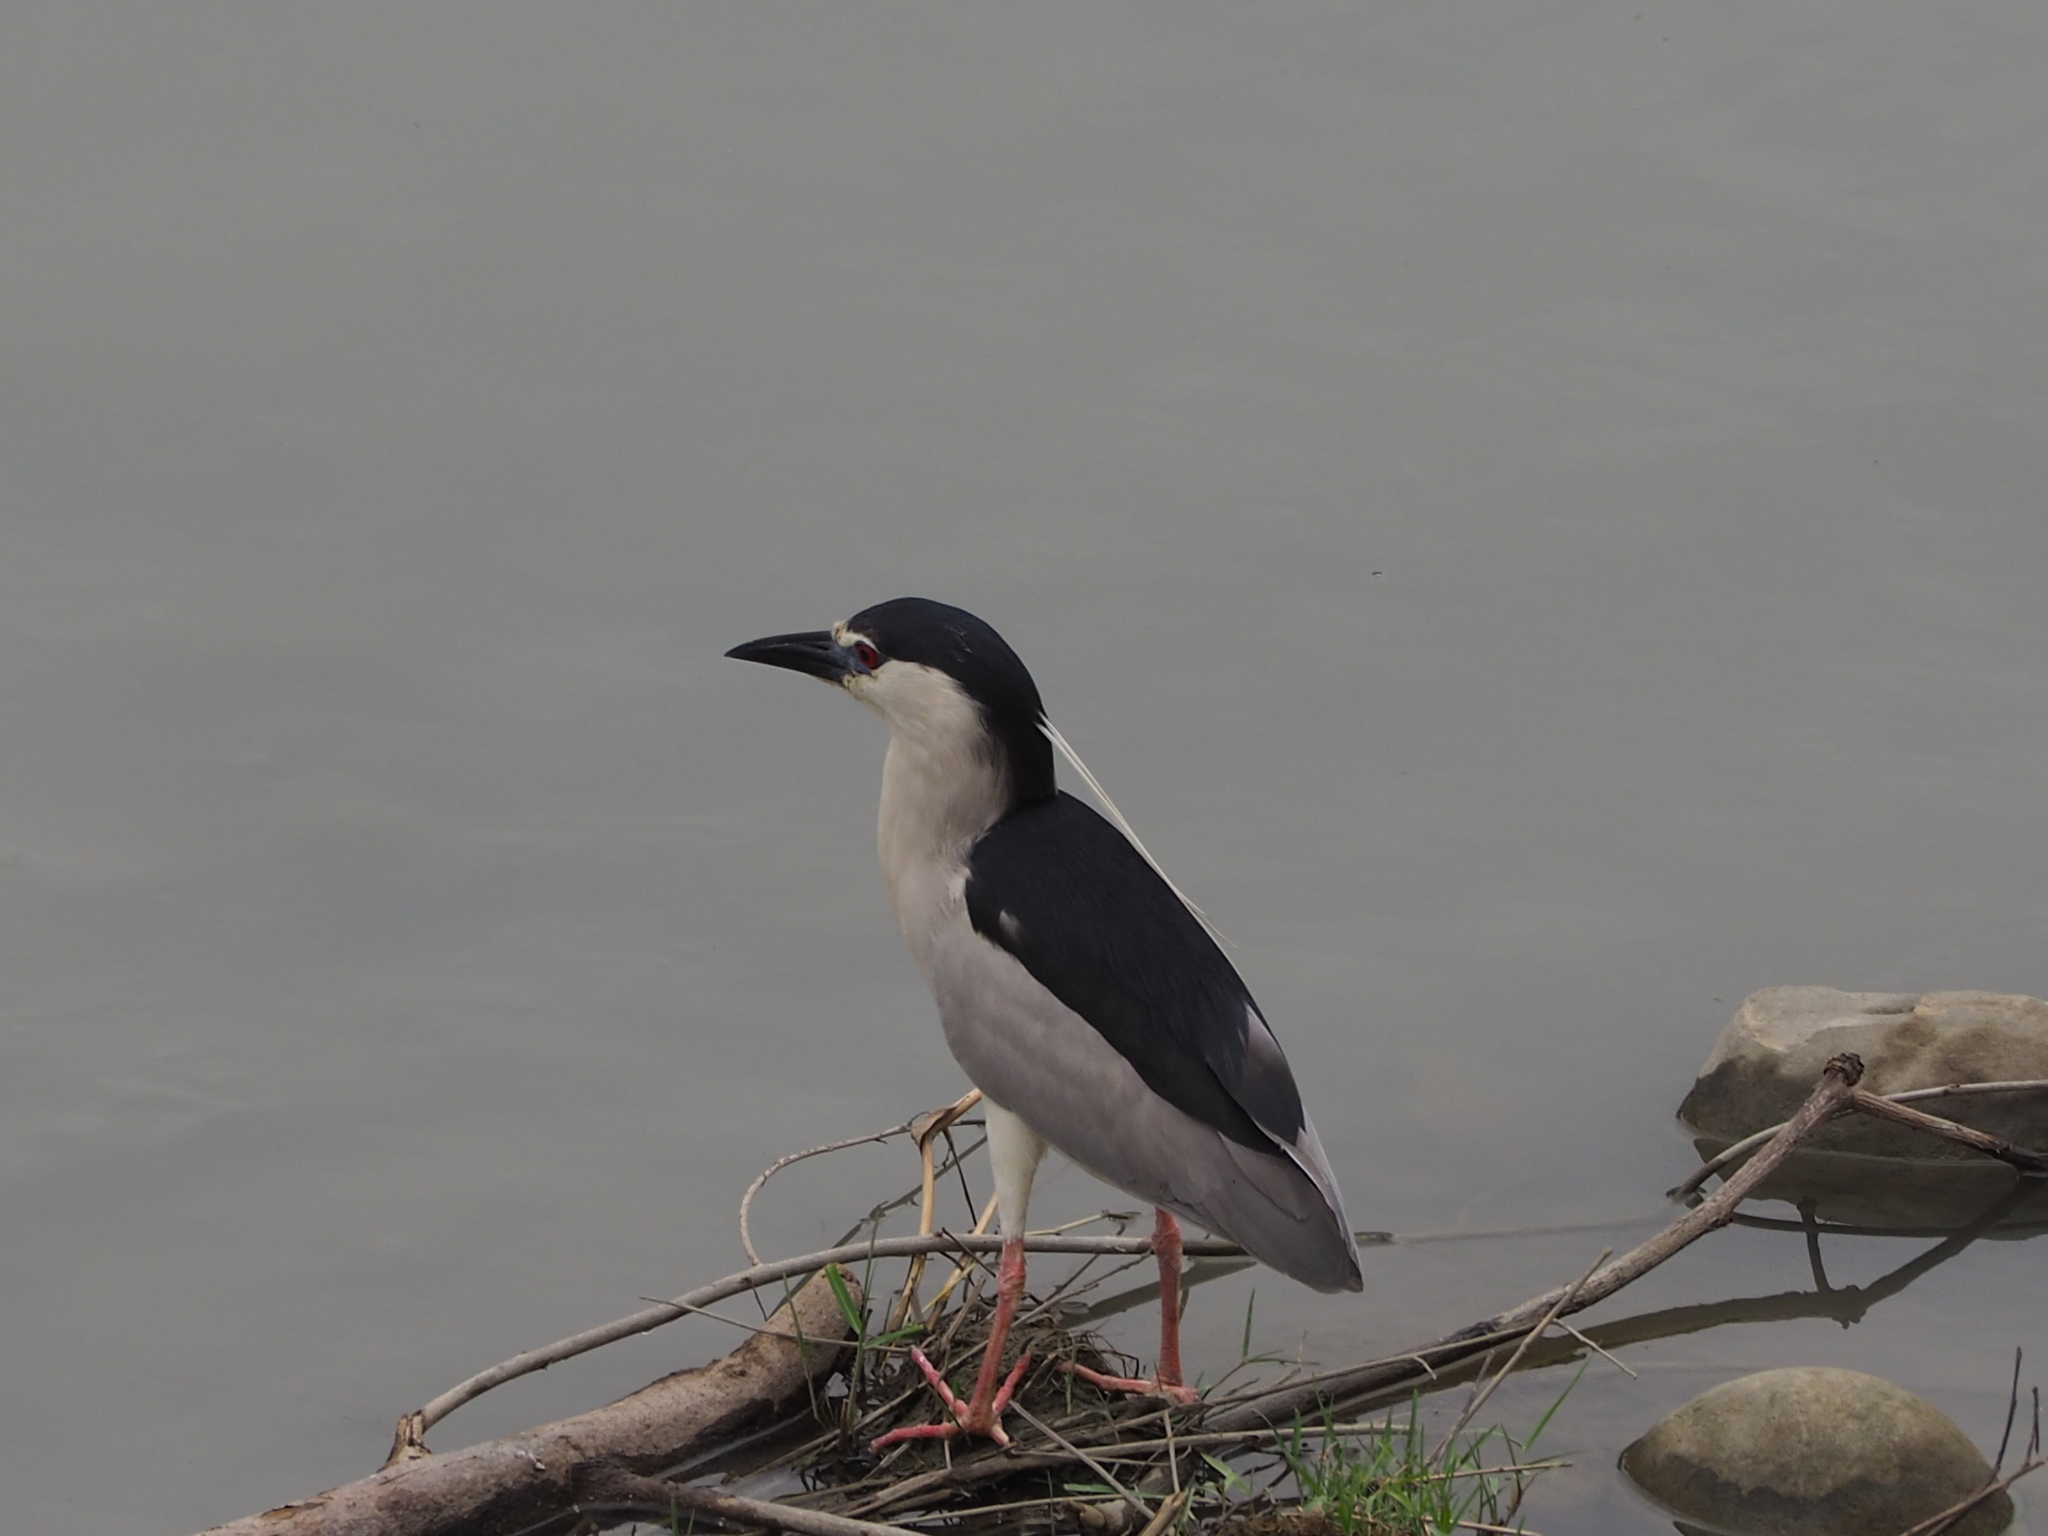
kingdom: Animalia
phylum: Chordata
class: Aves
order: Pelecaniformes
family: Ardeidae
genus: Nycticorax
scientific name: Nycticorax nycticorax
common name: Black-crowned night heron
